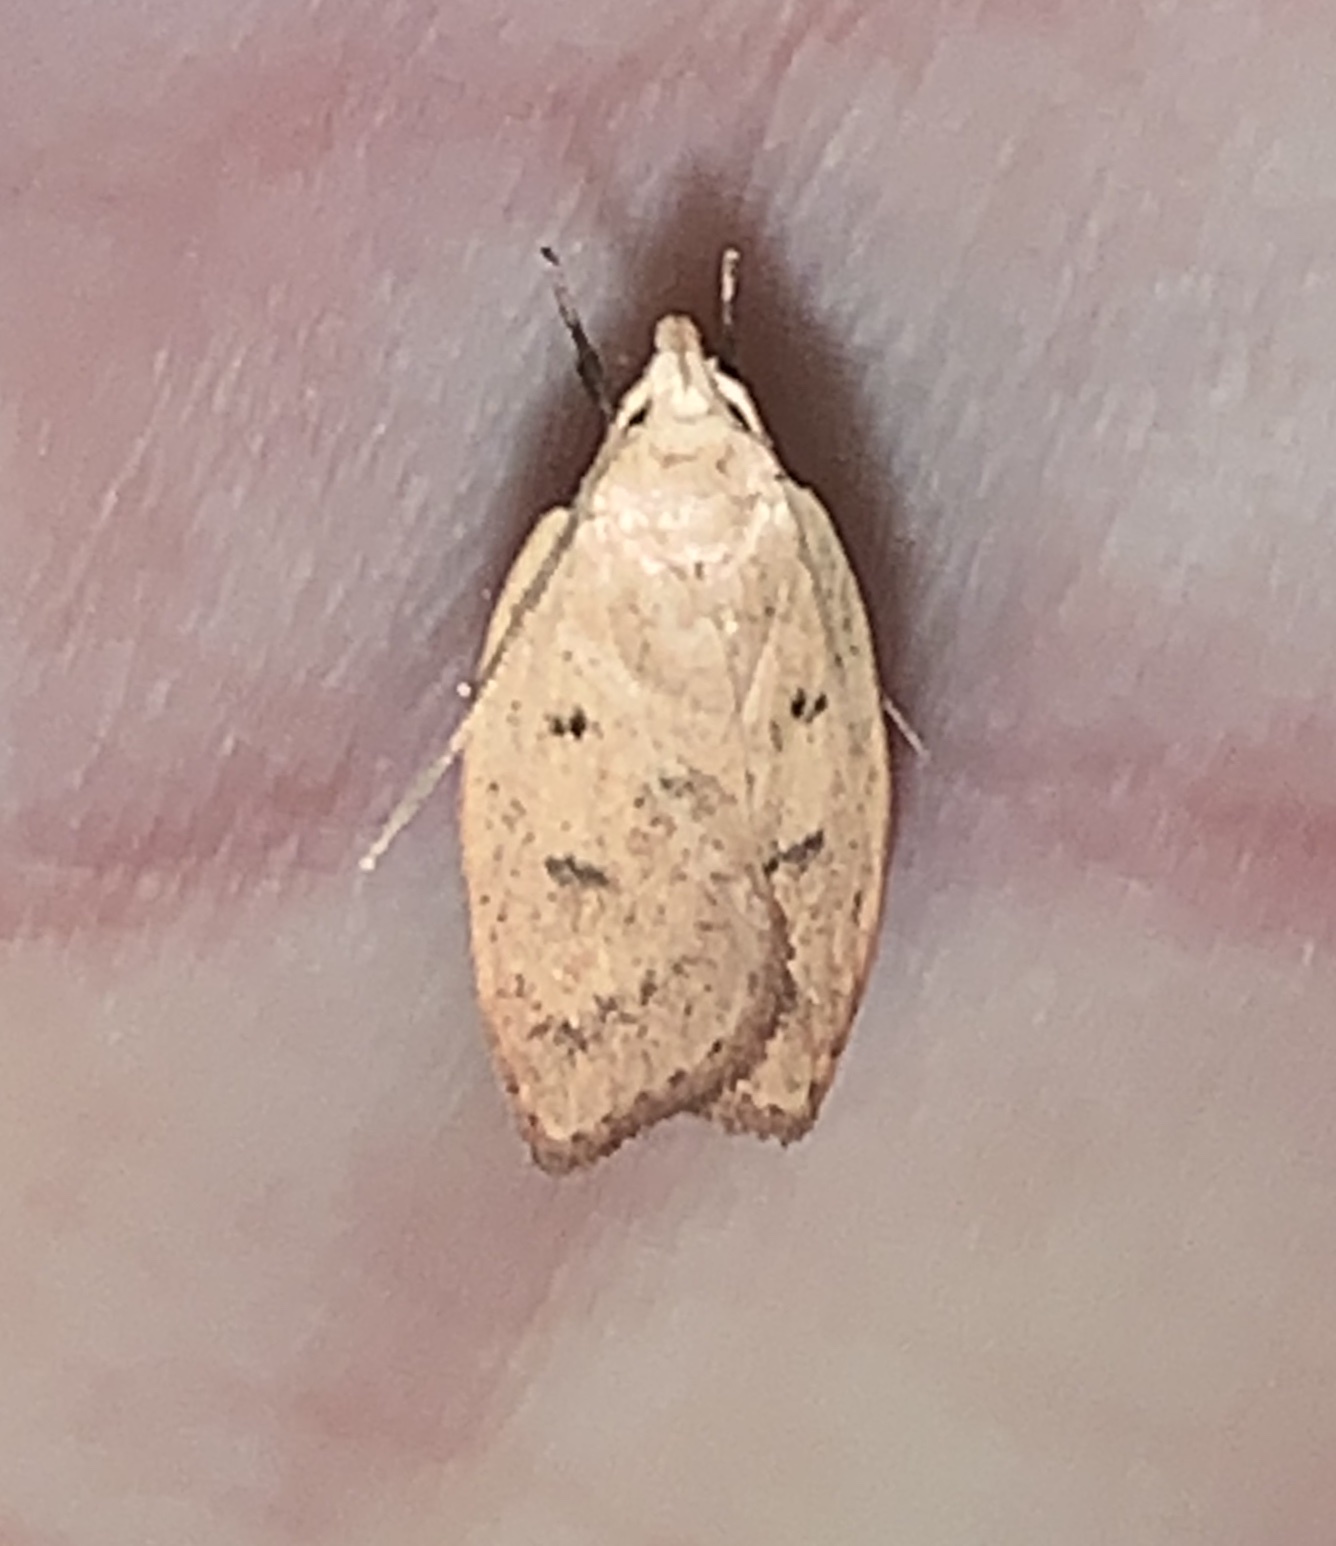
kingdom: Animalia
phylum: Arthropoda
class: Insecta
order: Lepidoptera
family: Peleopodidae
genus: Machimia
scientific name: Machimia tentoriferella
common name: Gold-striped leaftier moth
